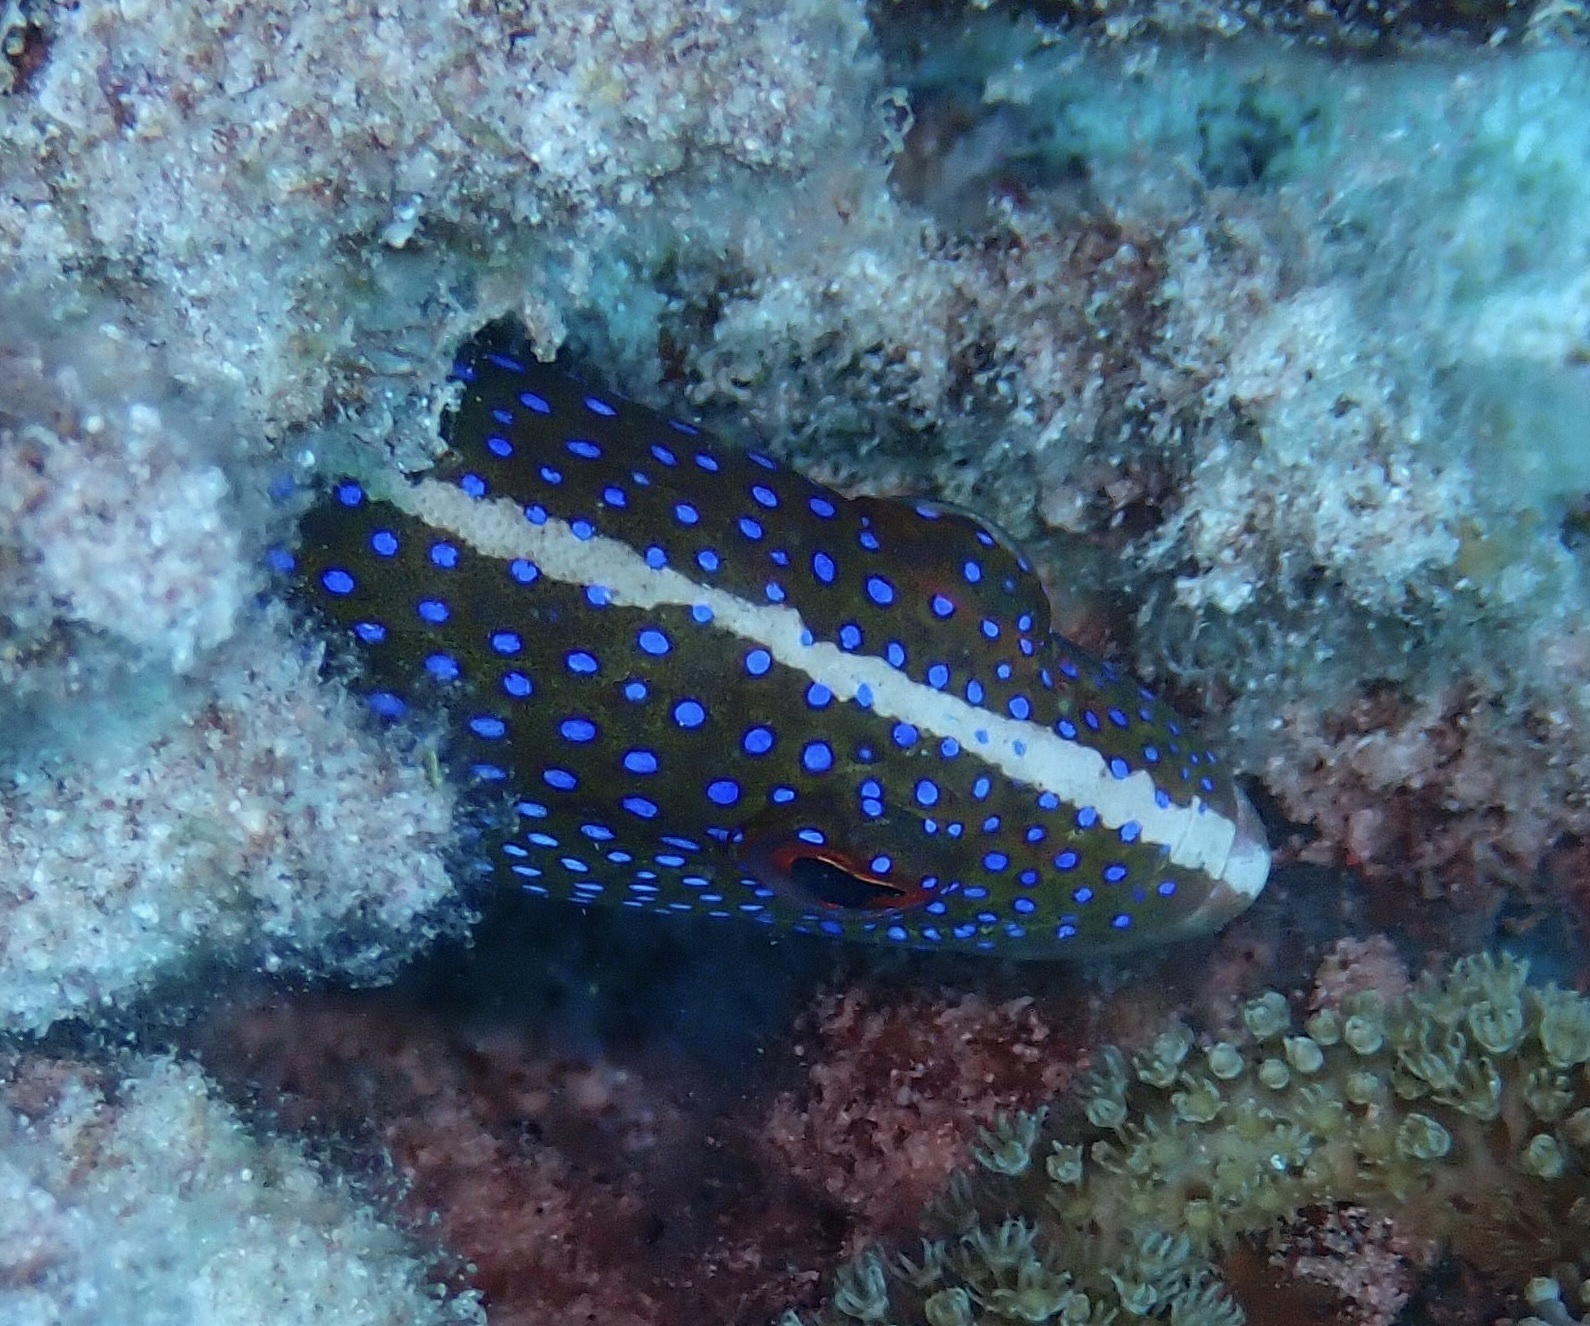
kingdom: Animalia
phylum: Chordata
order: Perciformes
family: Serranidae
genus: Variola
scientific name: Variola louti
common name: Yellow-edged lyretail
